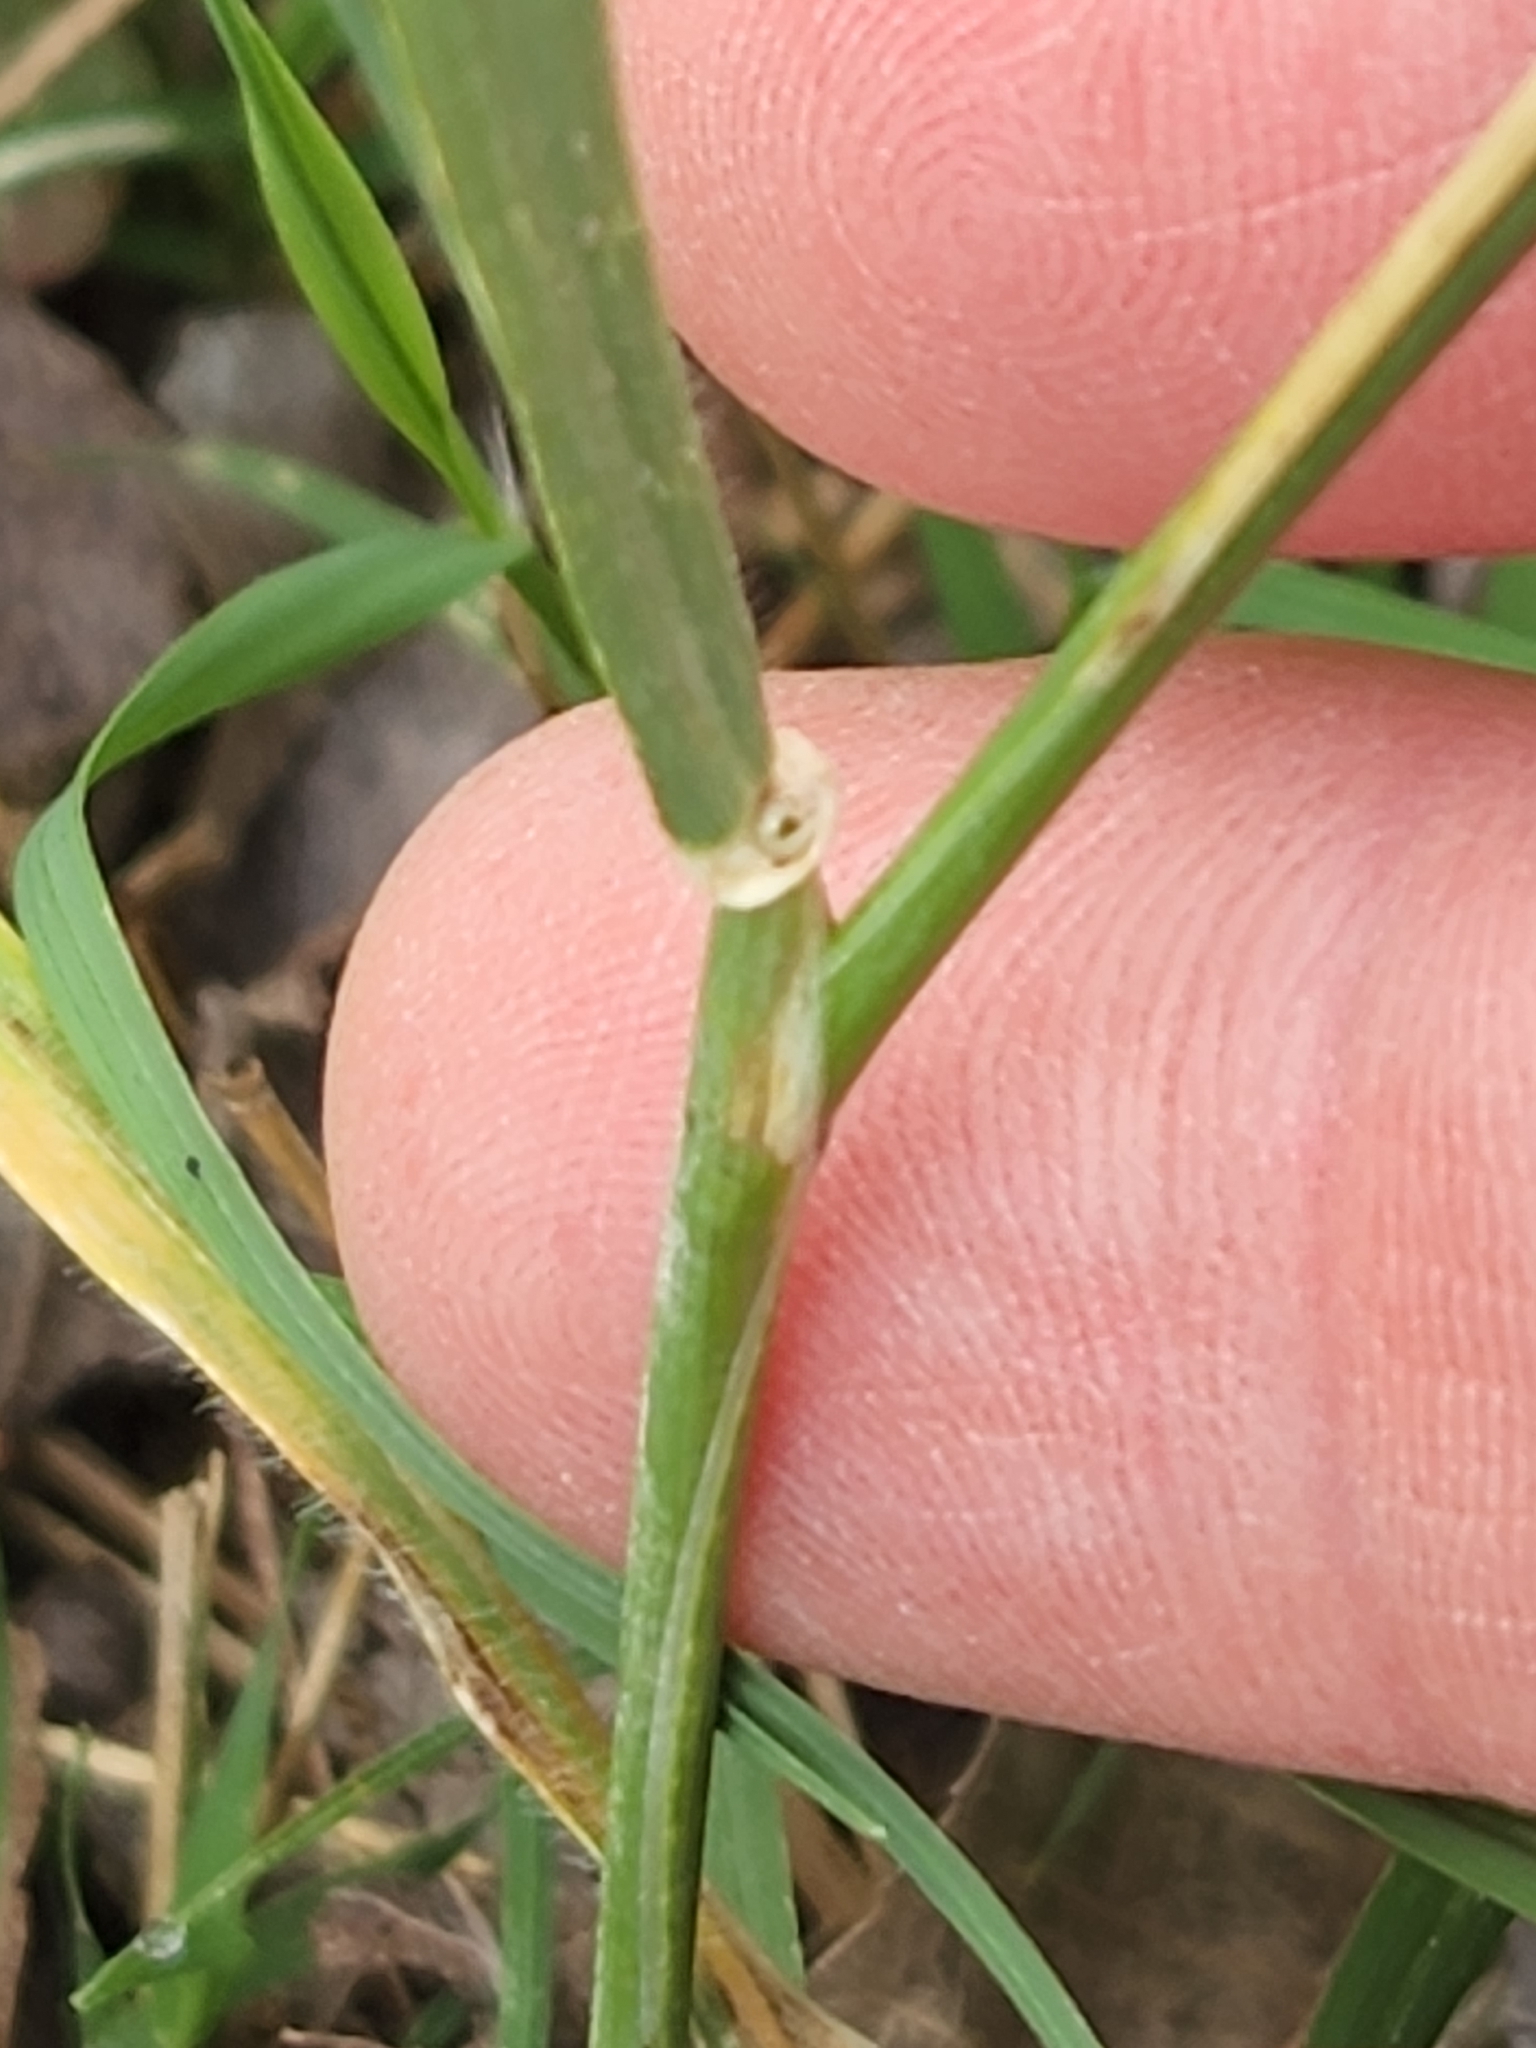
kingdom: Plantae
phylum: Tracheophyta
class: Liliopsida
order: Poales
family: Poaceae
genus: Hordeum
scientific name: Hordeum murinum
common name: Wall barley
